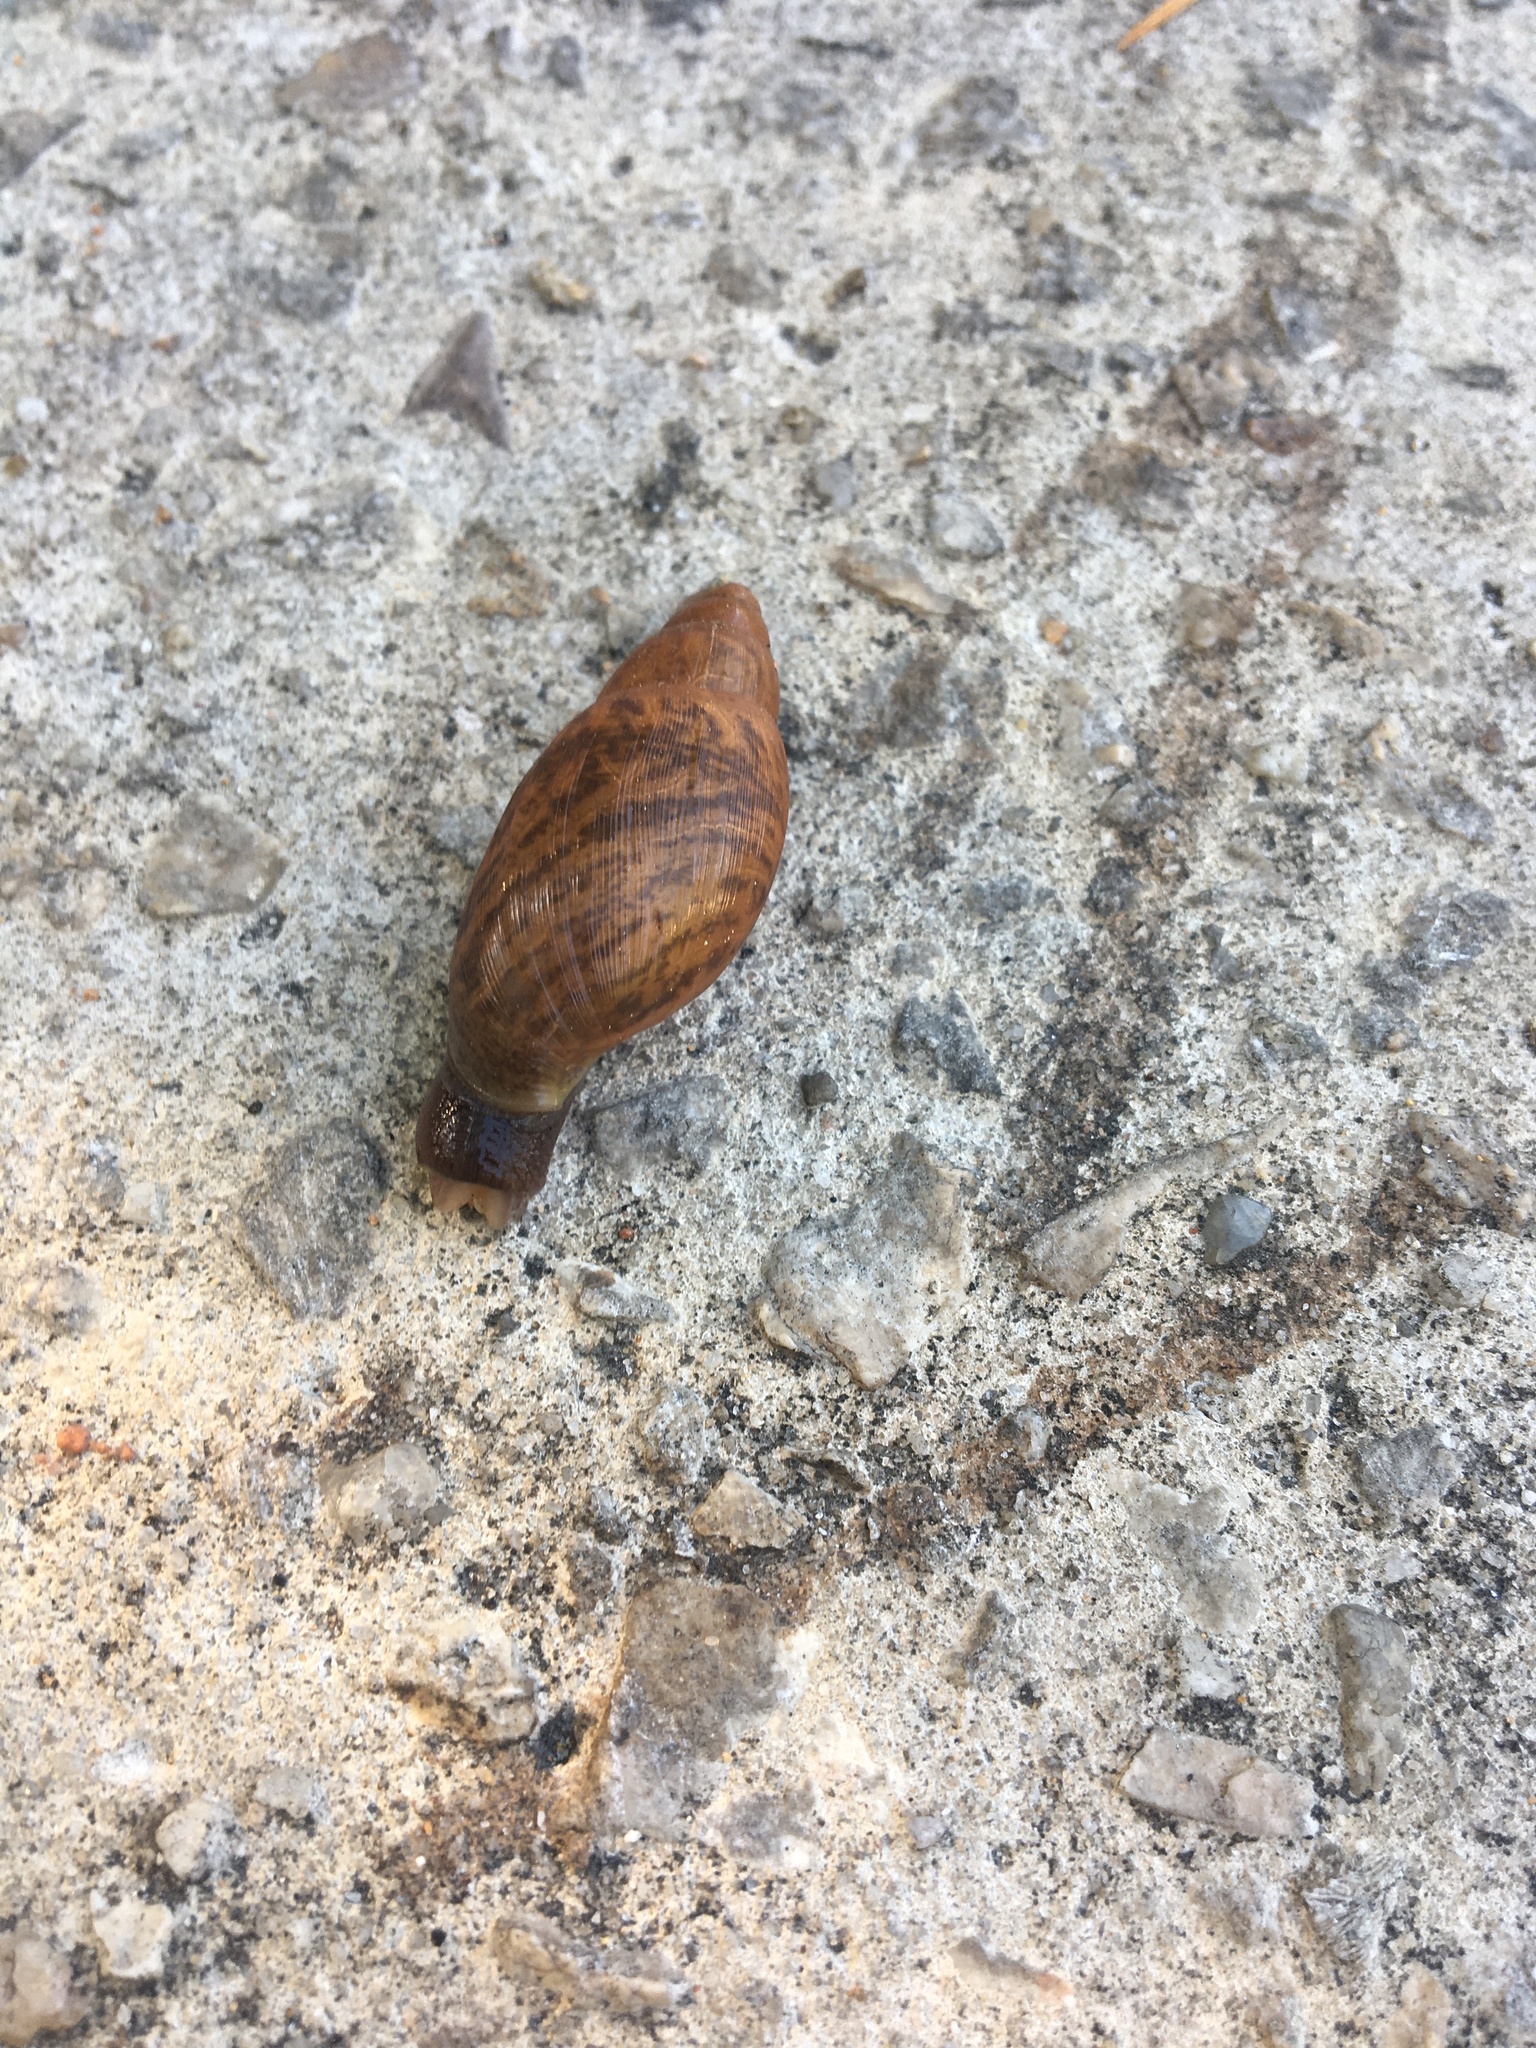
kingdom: Animalia
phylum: Mollusca
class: Gastropoda
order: Stylommatophora
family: Spiraxidae
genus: Euglandina
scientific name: Euglandina rosea
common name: Rosy wolfsnail
